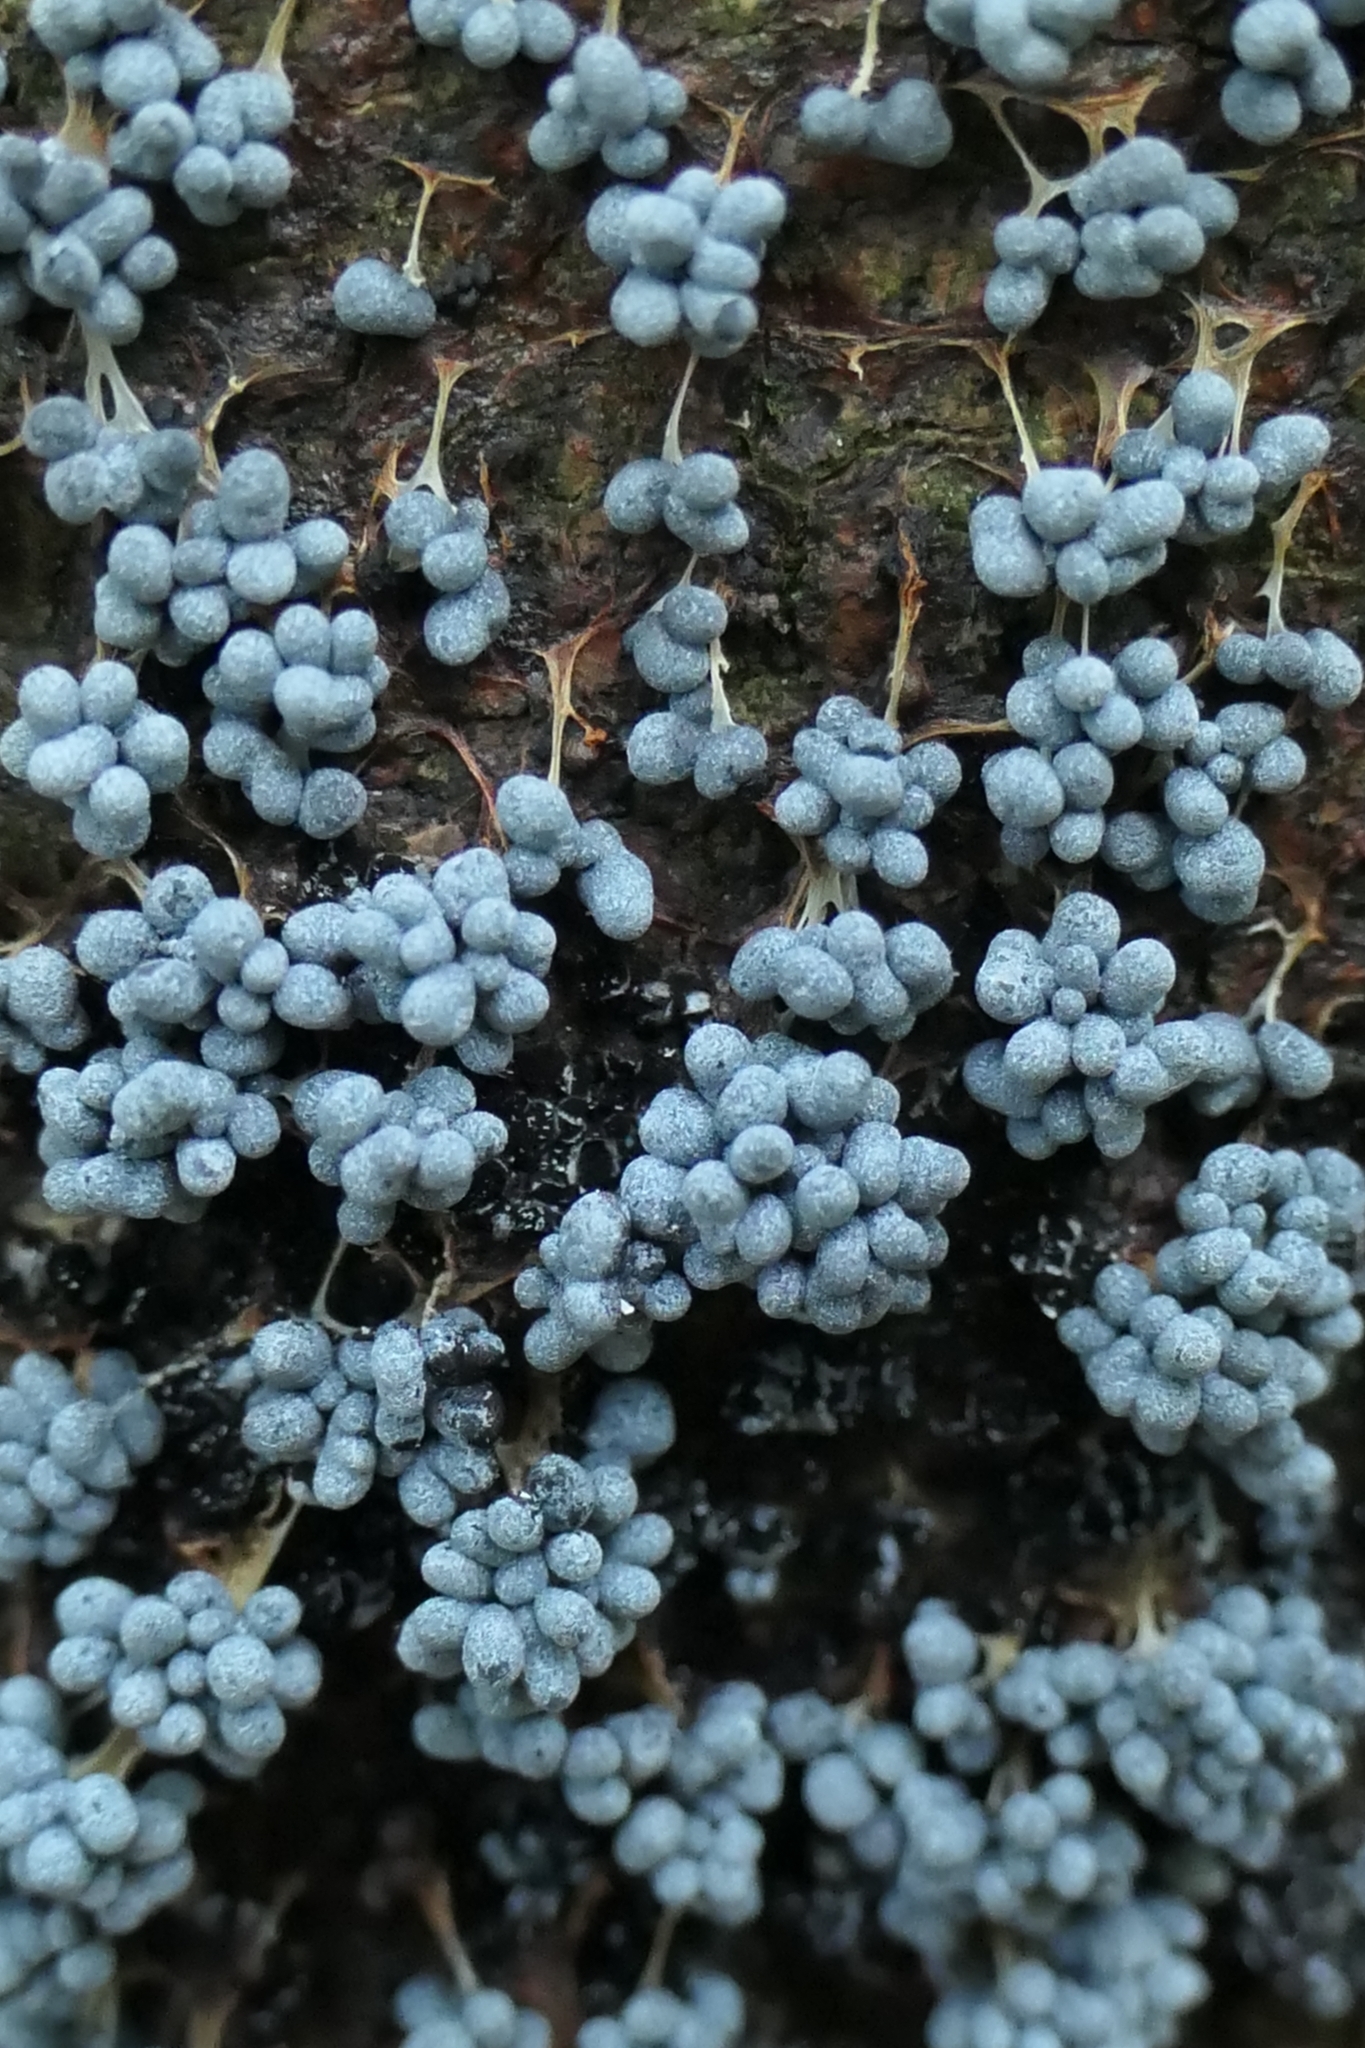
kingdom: Protozoa
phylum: Mycetozoa
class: Myxomycetes
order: Physarales
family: Physaraceae
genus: Badhamia
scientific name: Badhamia utricularis
